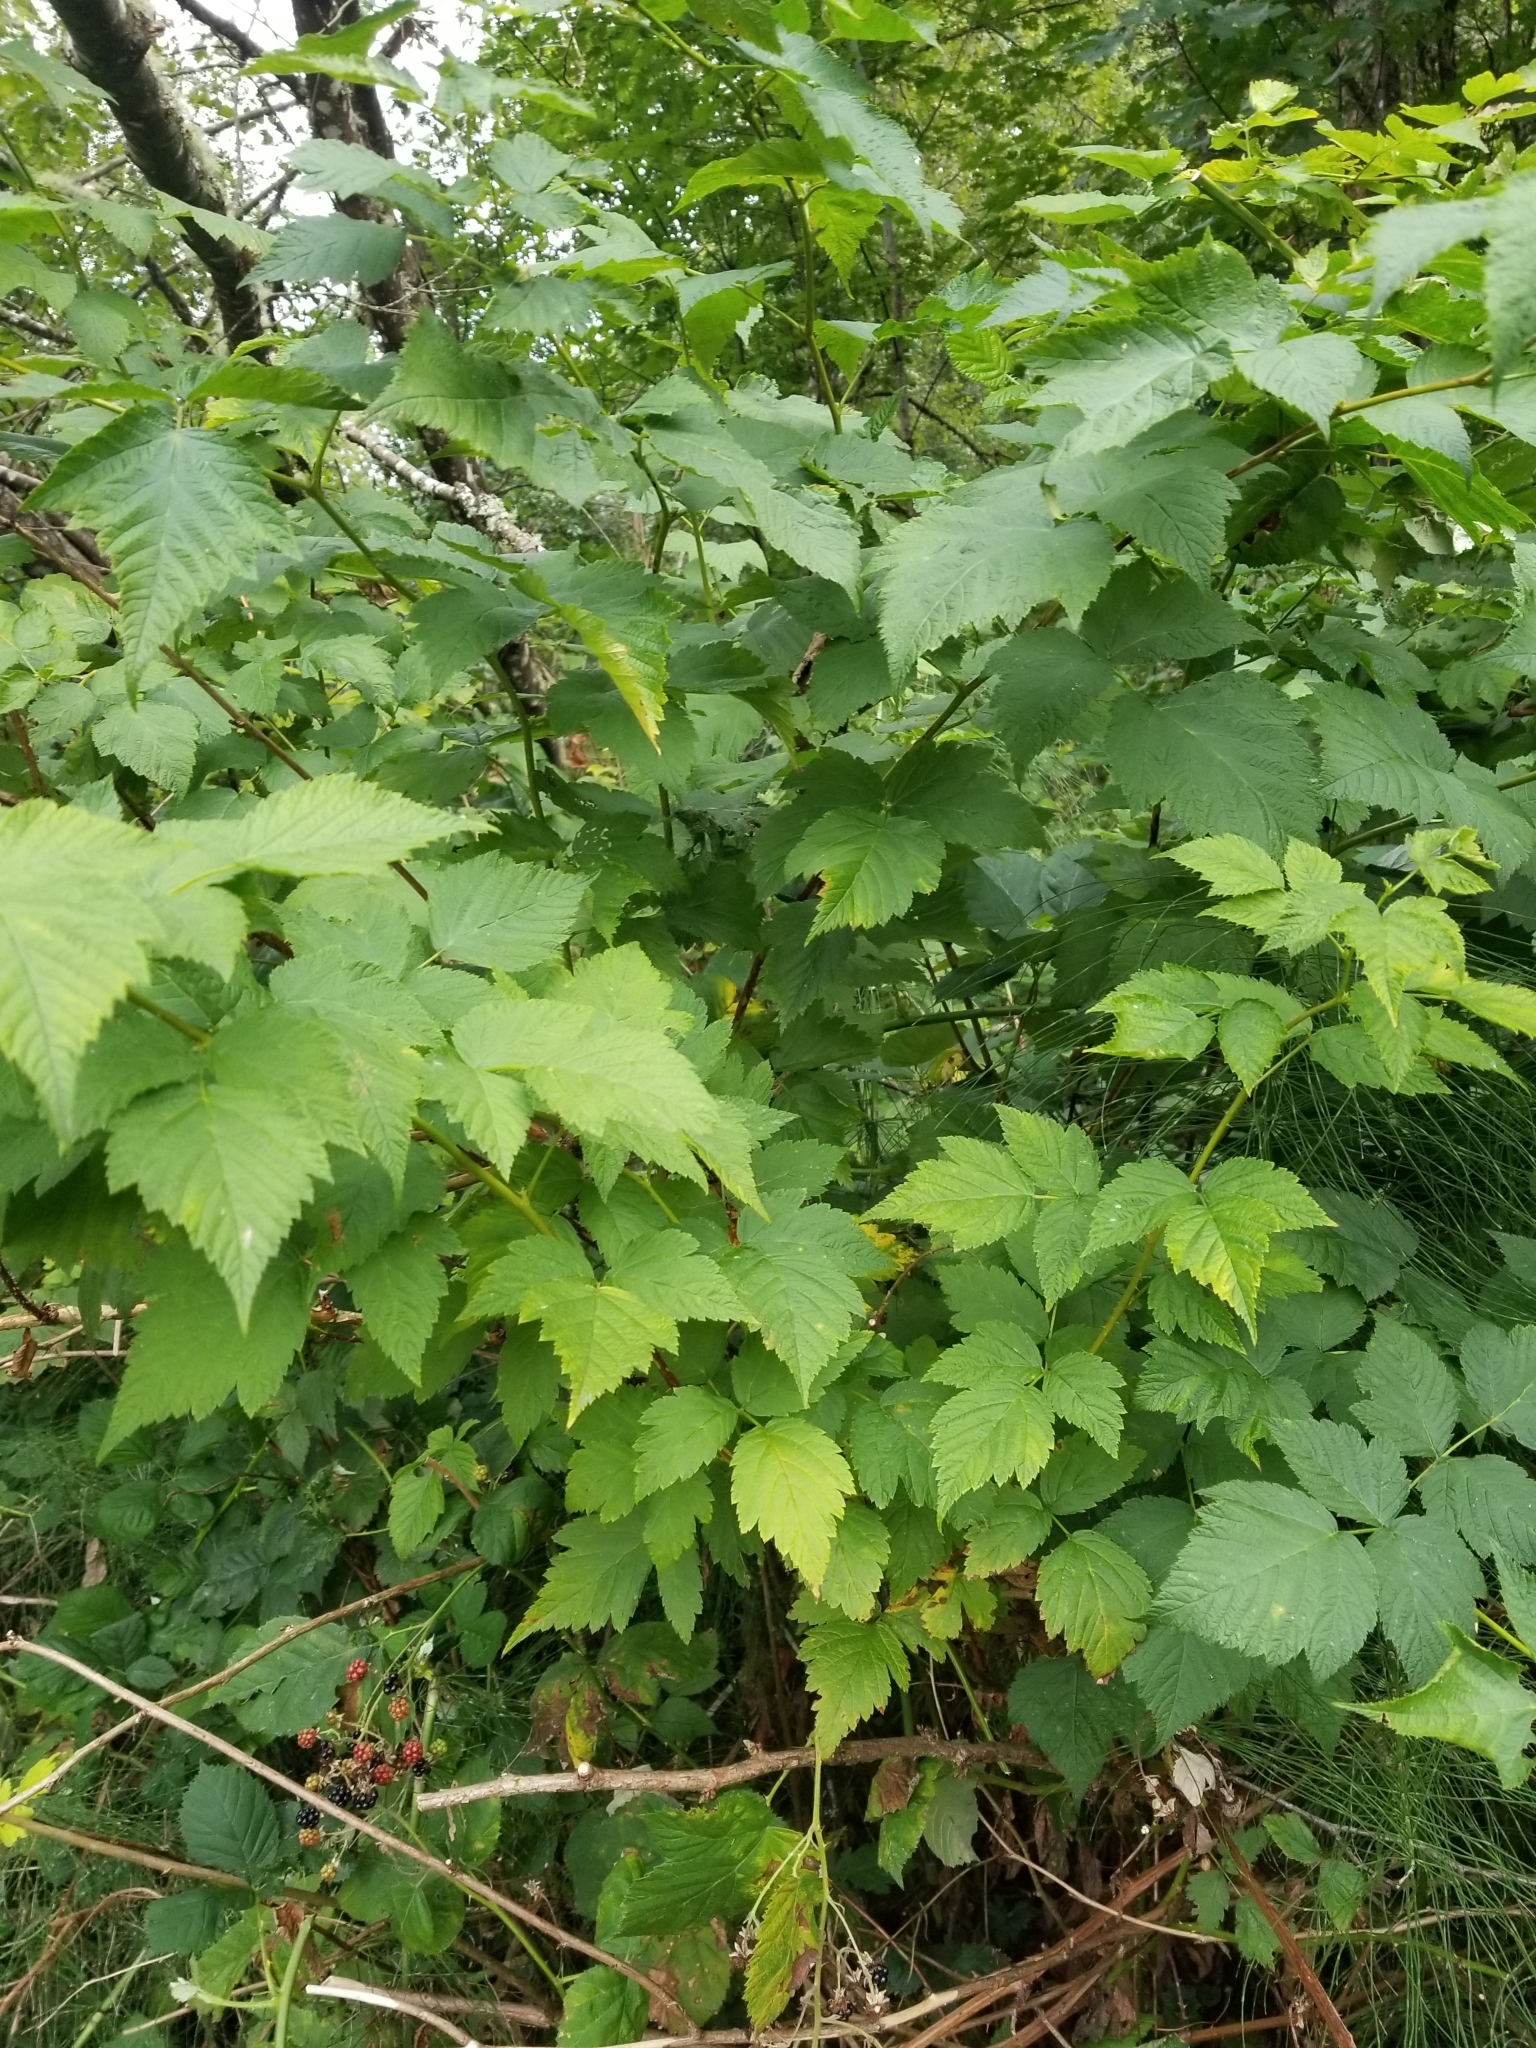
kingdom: Plantae
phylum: Tracheophyta
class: Magnoliopsida
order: Rosales
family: Rosaceae
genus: Rubus
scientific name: Rubus spectabilis
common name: Salmonberry
